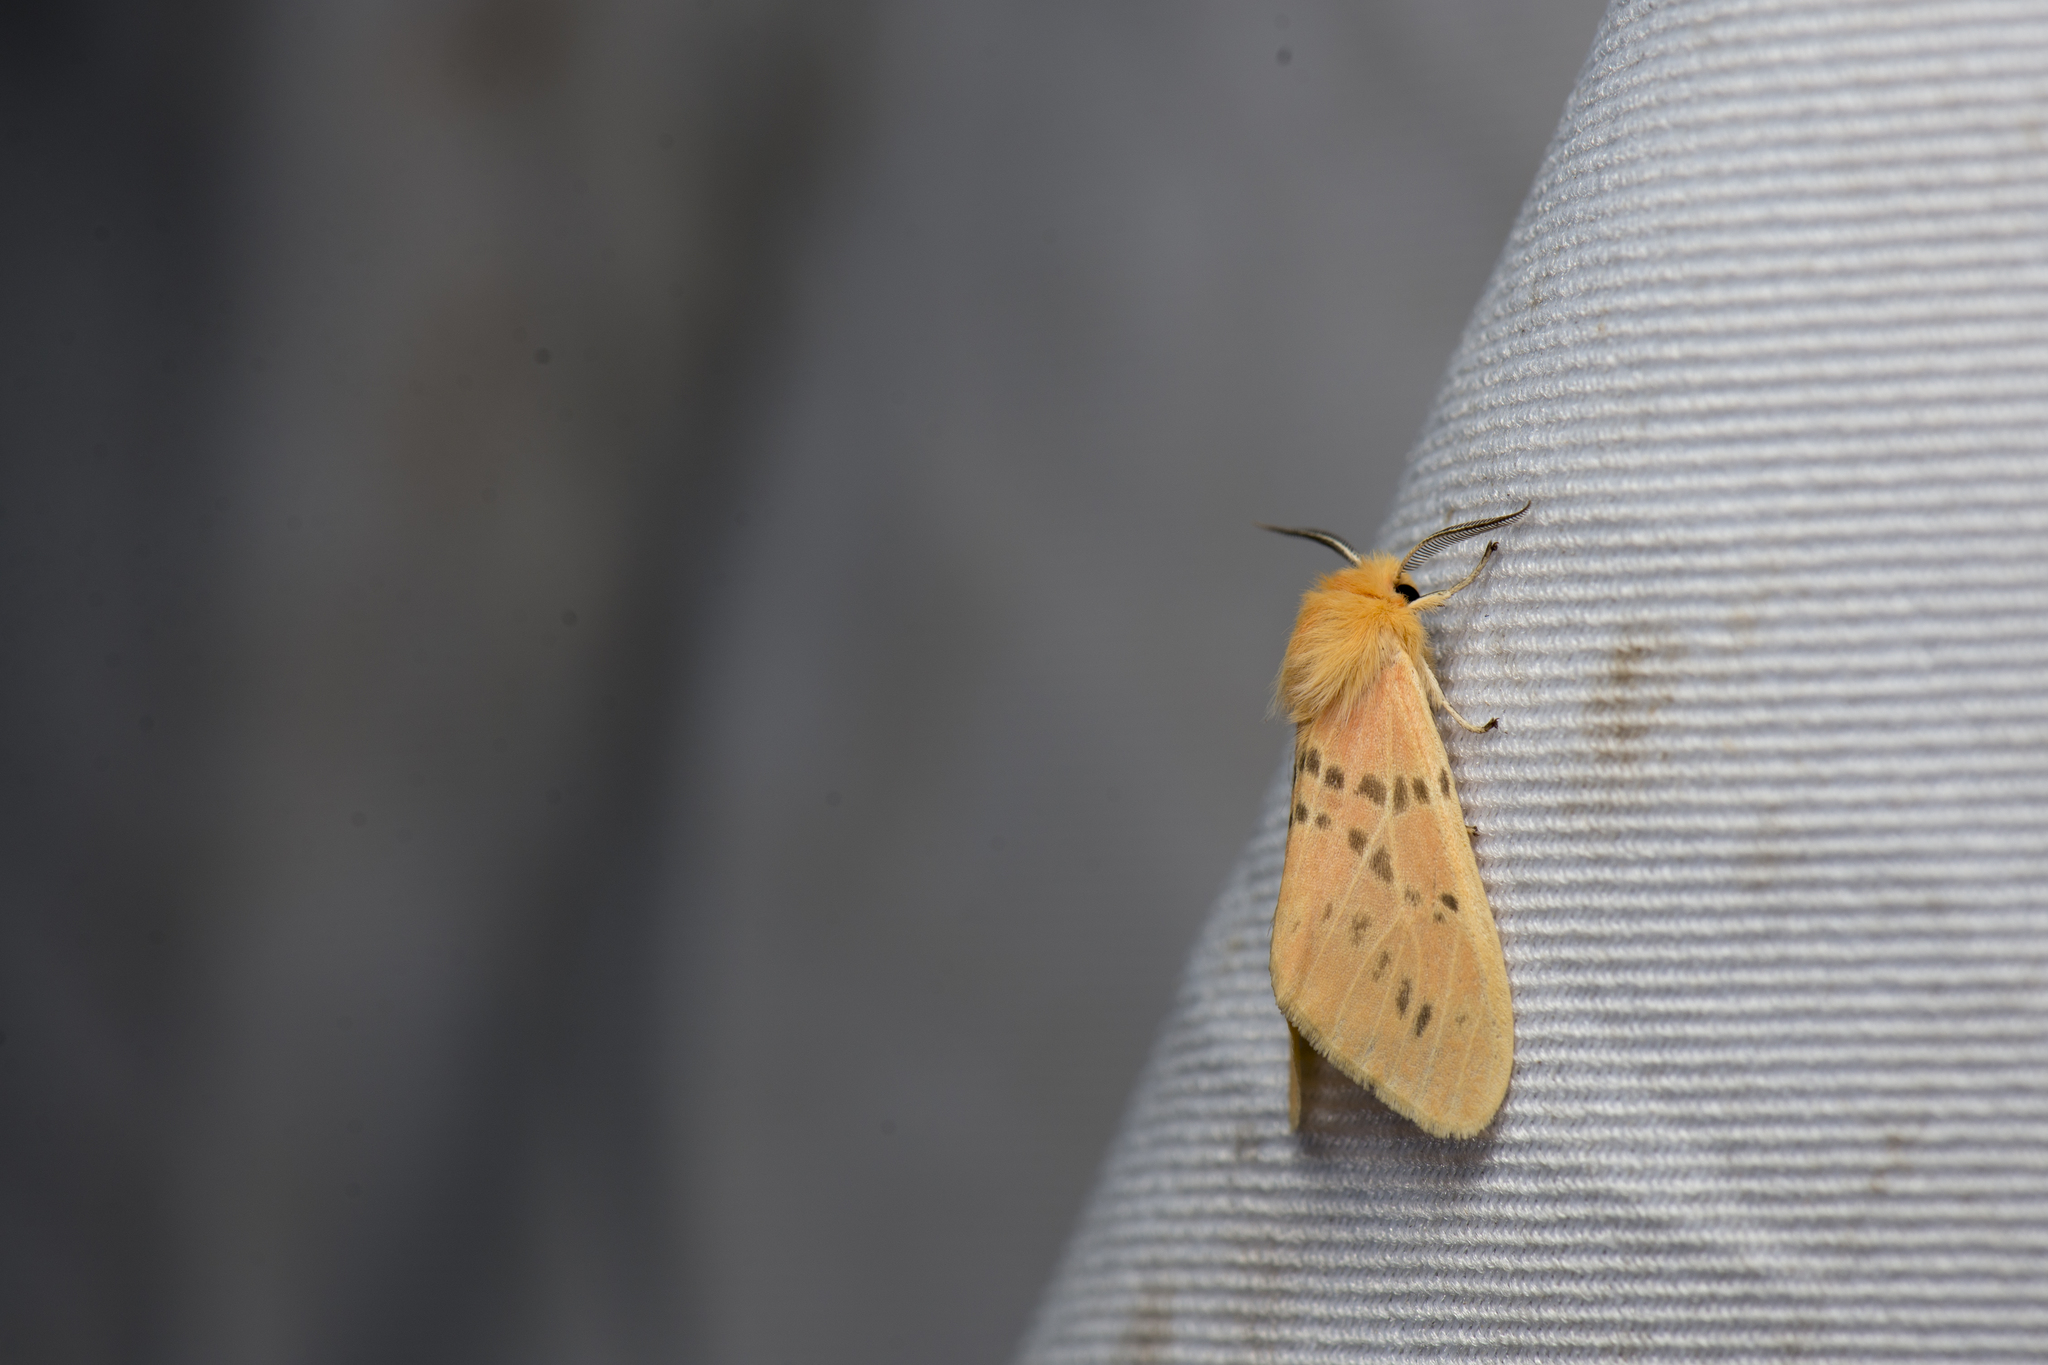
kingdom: Animalia
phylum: Arthropoda
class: Insecta
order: Lepidoptera
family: Erebidae
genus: Lemyra
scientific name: Lemyra alikangensis
